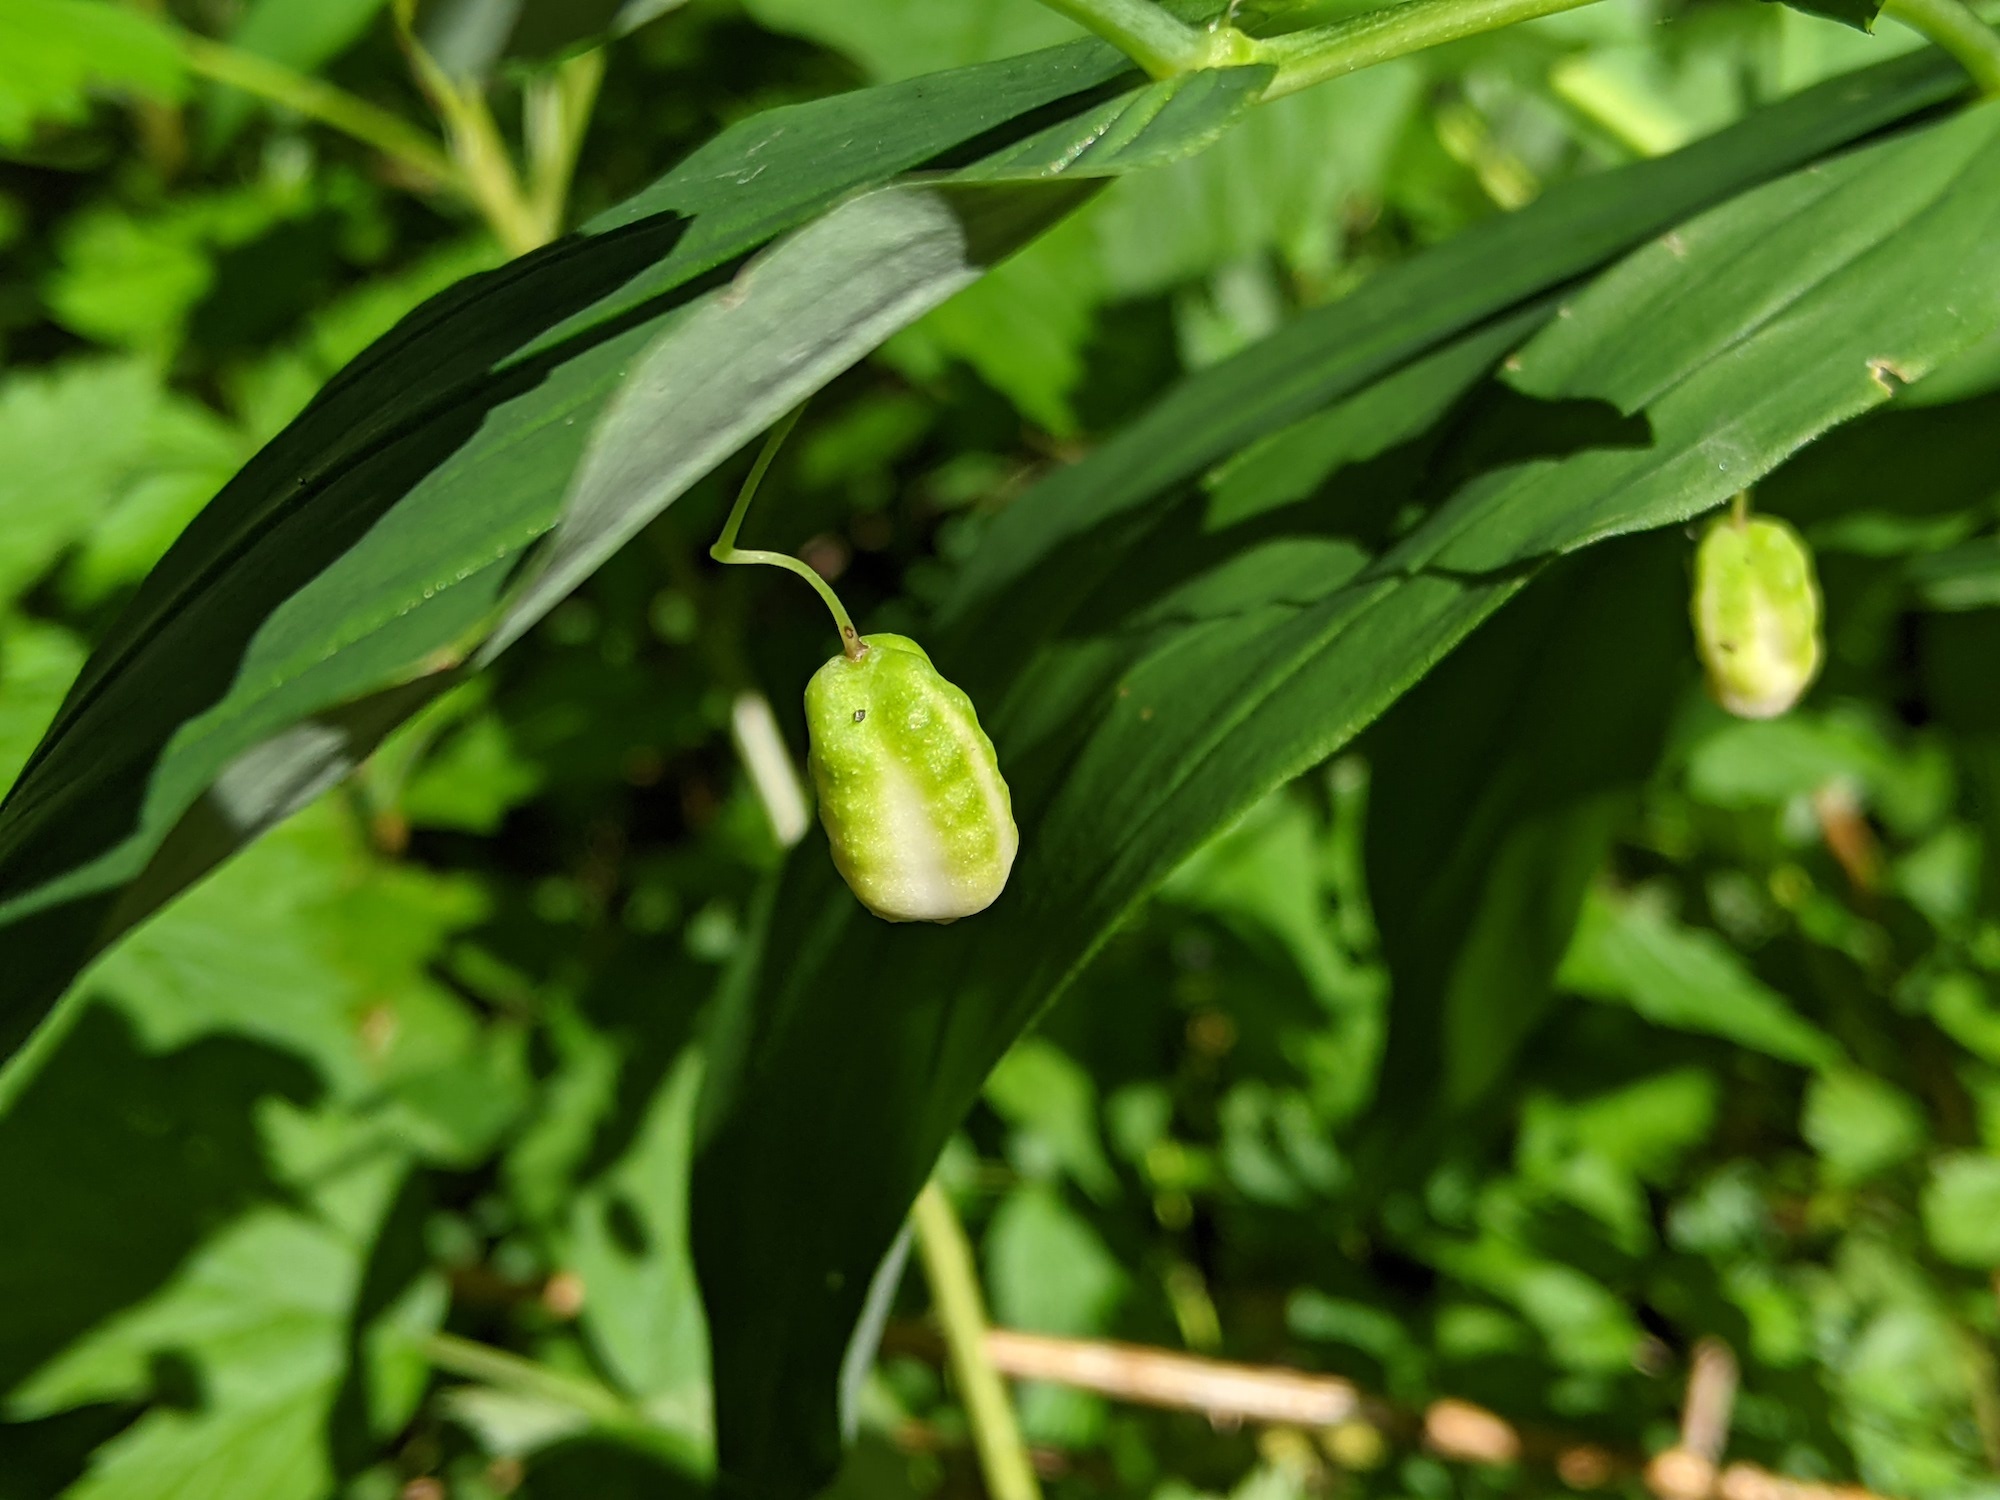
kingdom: Plantae
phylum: Tracheophyta
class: Liliopsida
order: Liliales
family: Liliaceae
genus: Streptopus
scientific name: Streptopus amplexifolius
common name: Clasp twisted stalk
